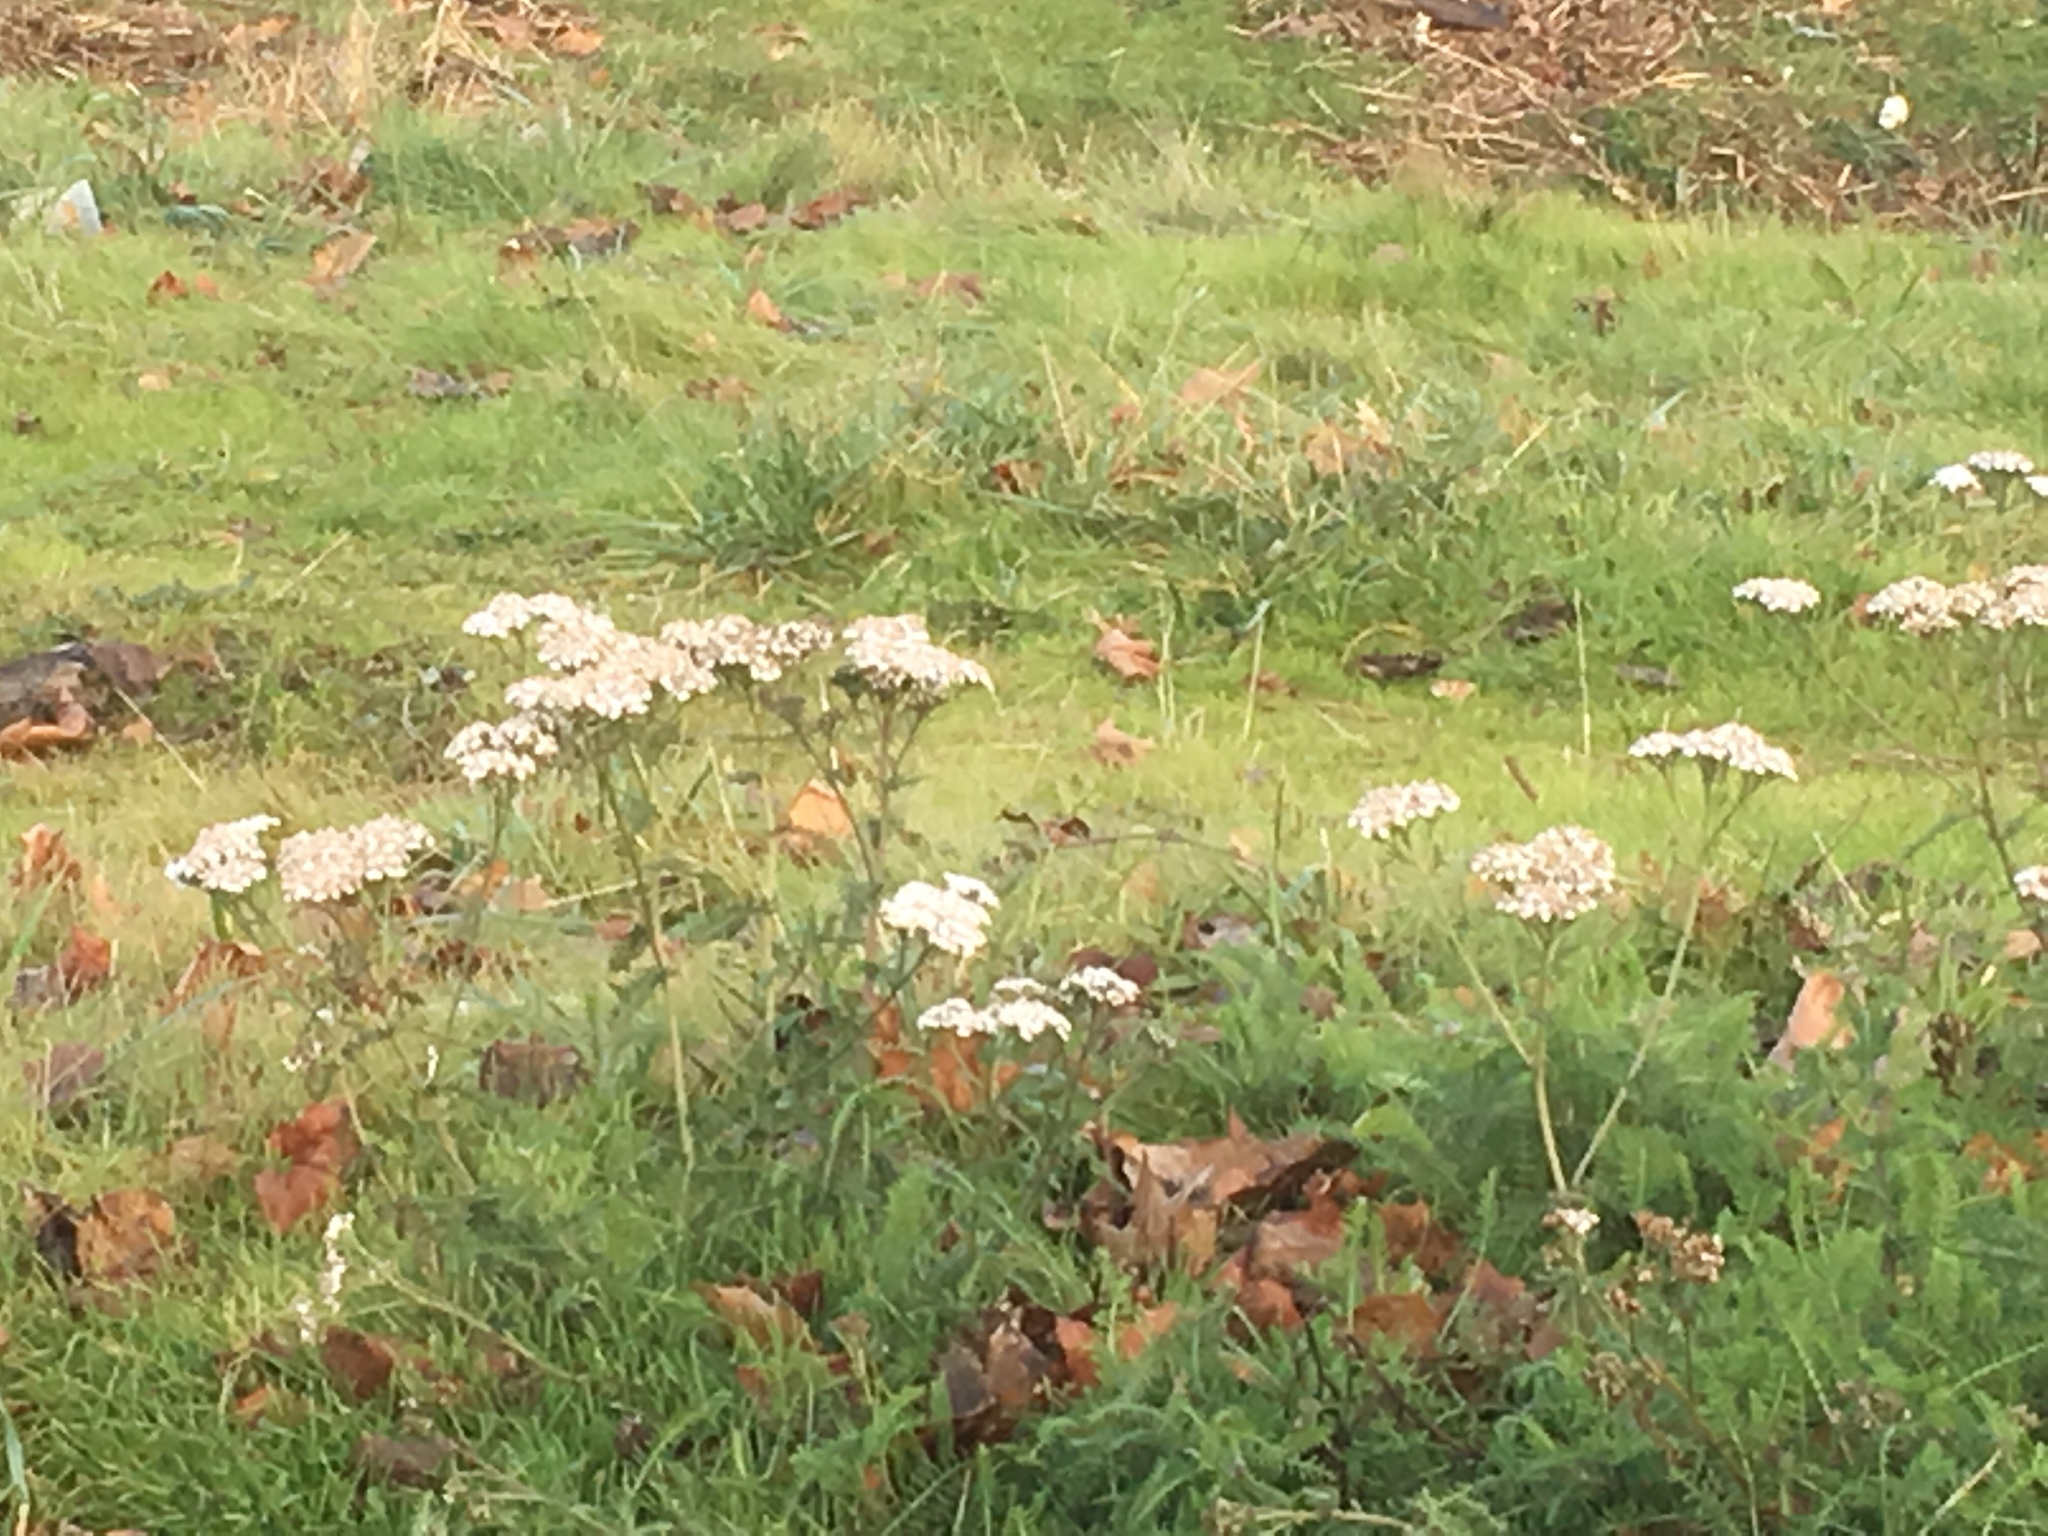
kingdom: Plantae
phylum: Tracheophyta
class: Magnoliopsida
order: Asterales
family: Asteraceae
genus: Achillea
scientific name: Achillea millefolium
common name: Yarrow
